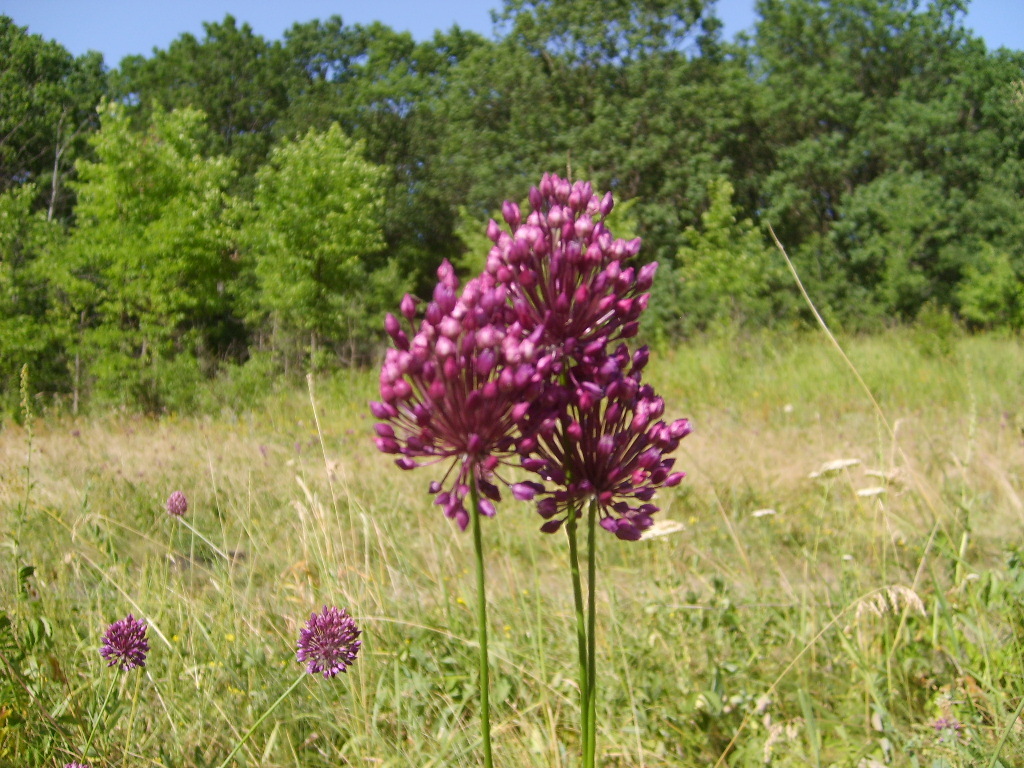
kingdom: Plantae
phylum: Tracheophyta
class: Liliopsida
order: Asparagales
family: Amaryllidaceae
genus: Allium
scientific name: Allium rotundum
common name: Sand leek
